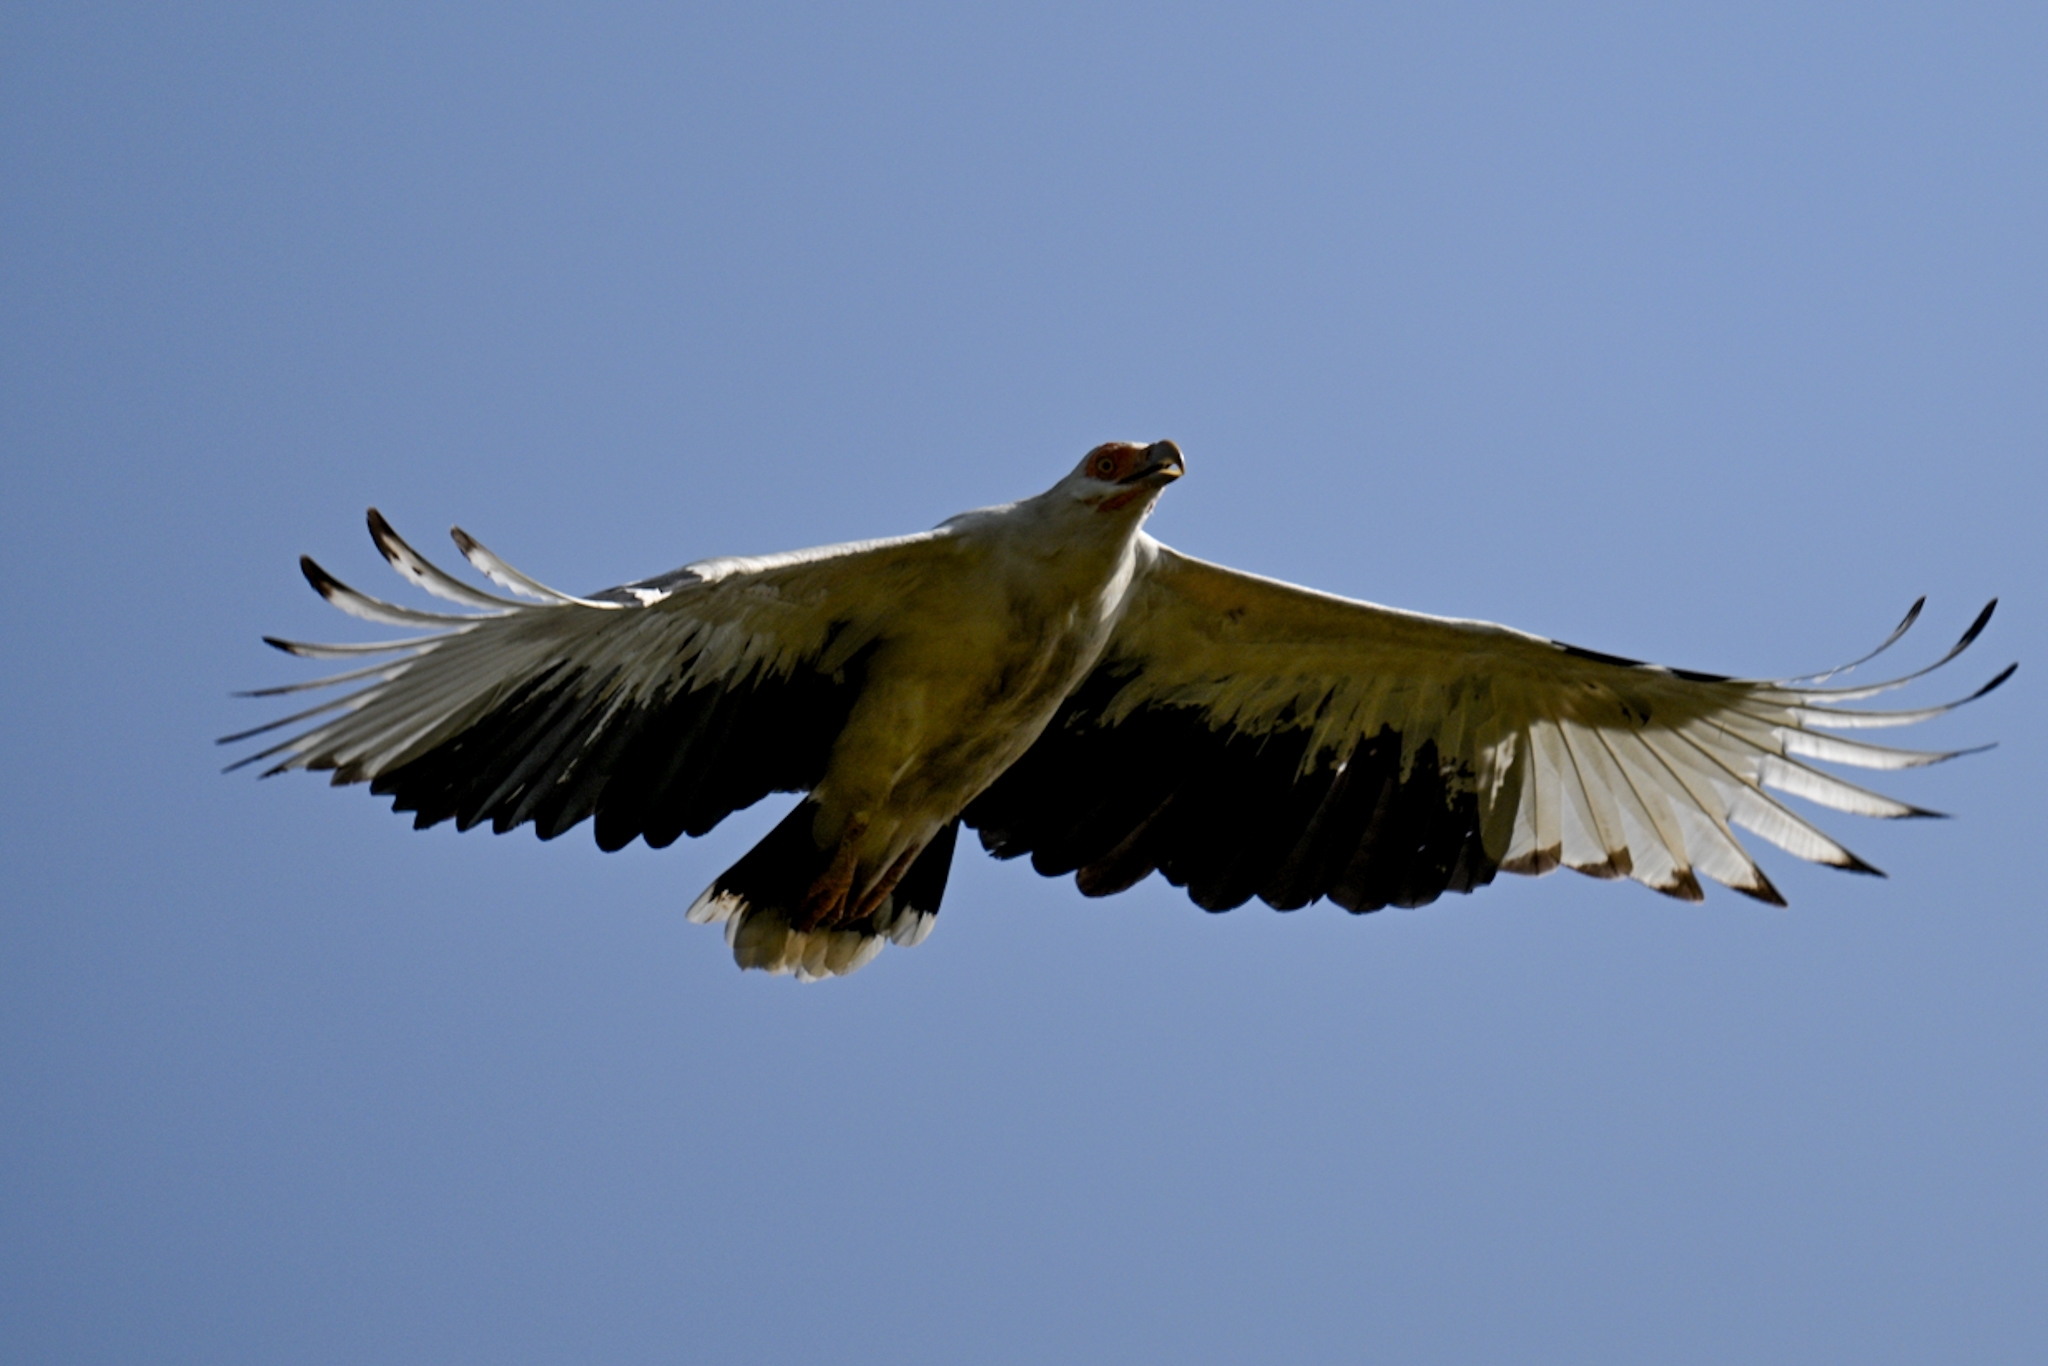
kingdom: Animalia
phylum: Chordata
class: Aves
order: Accipitriformes
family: Accipitridae
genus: Gypohierax
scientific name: Gypohierax angolensis
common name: Palm-nut vulture
